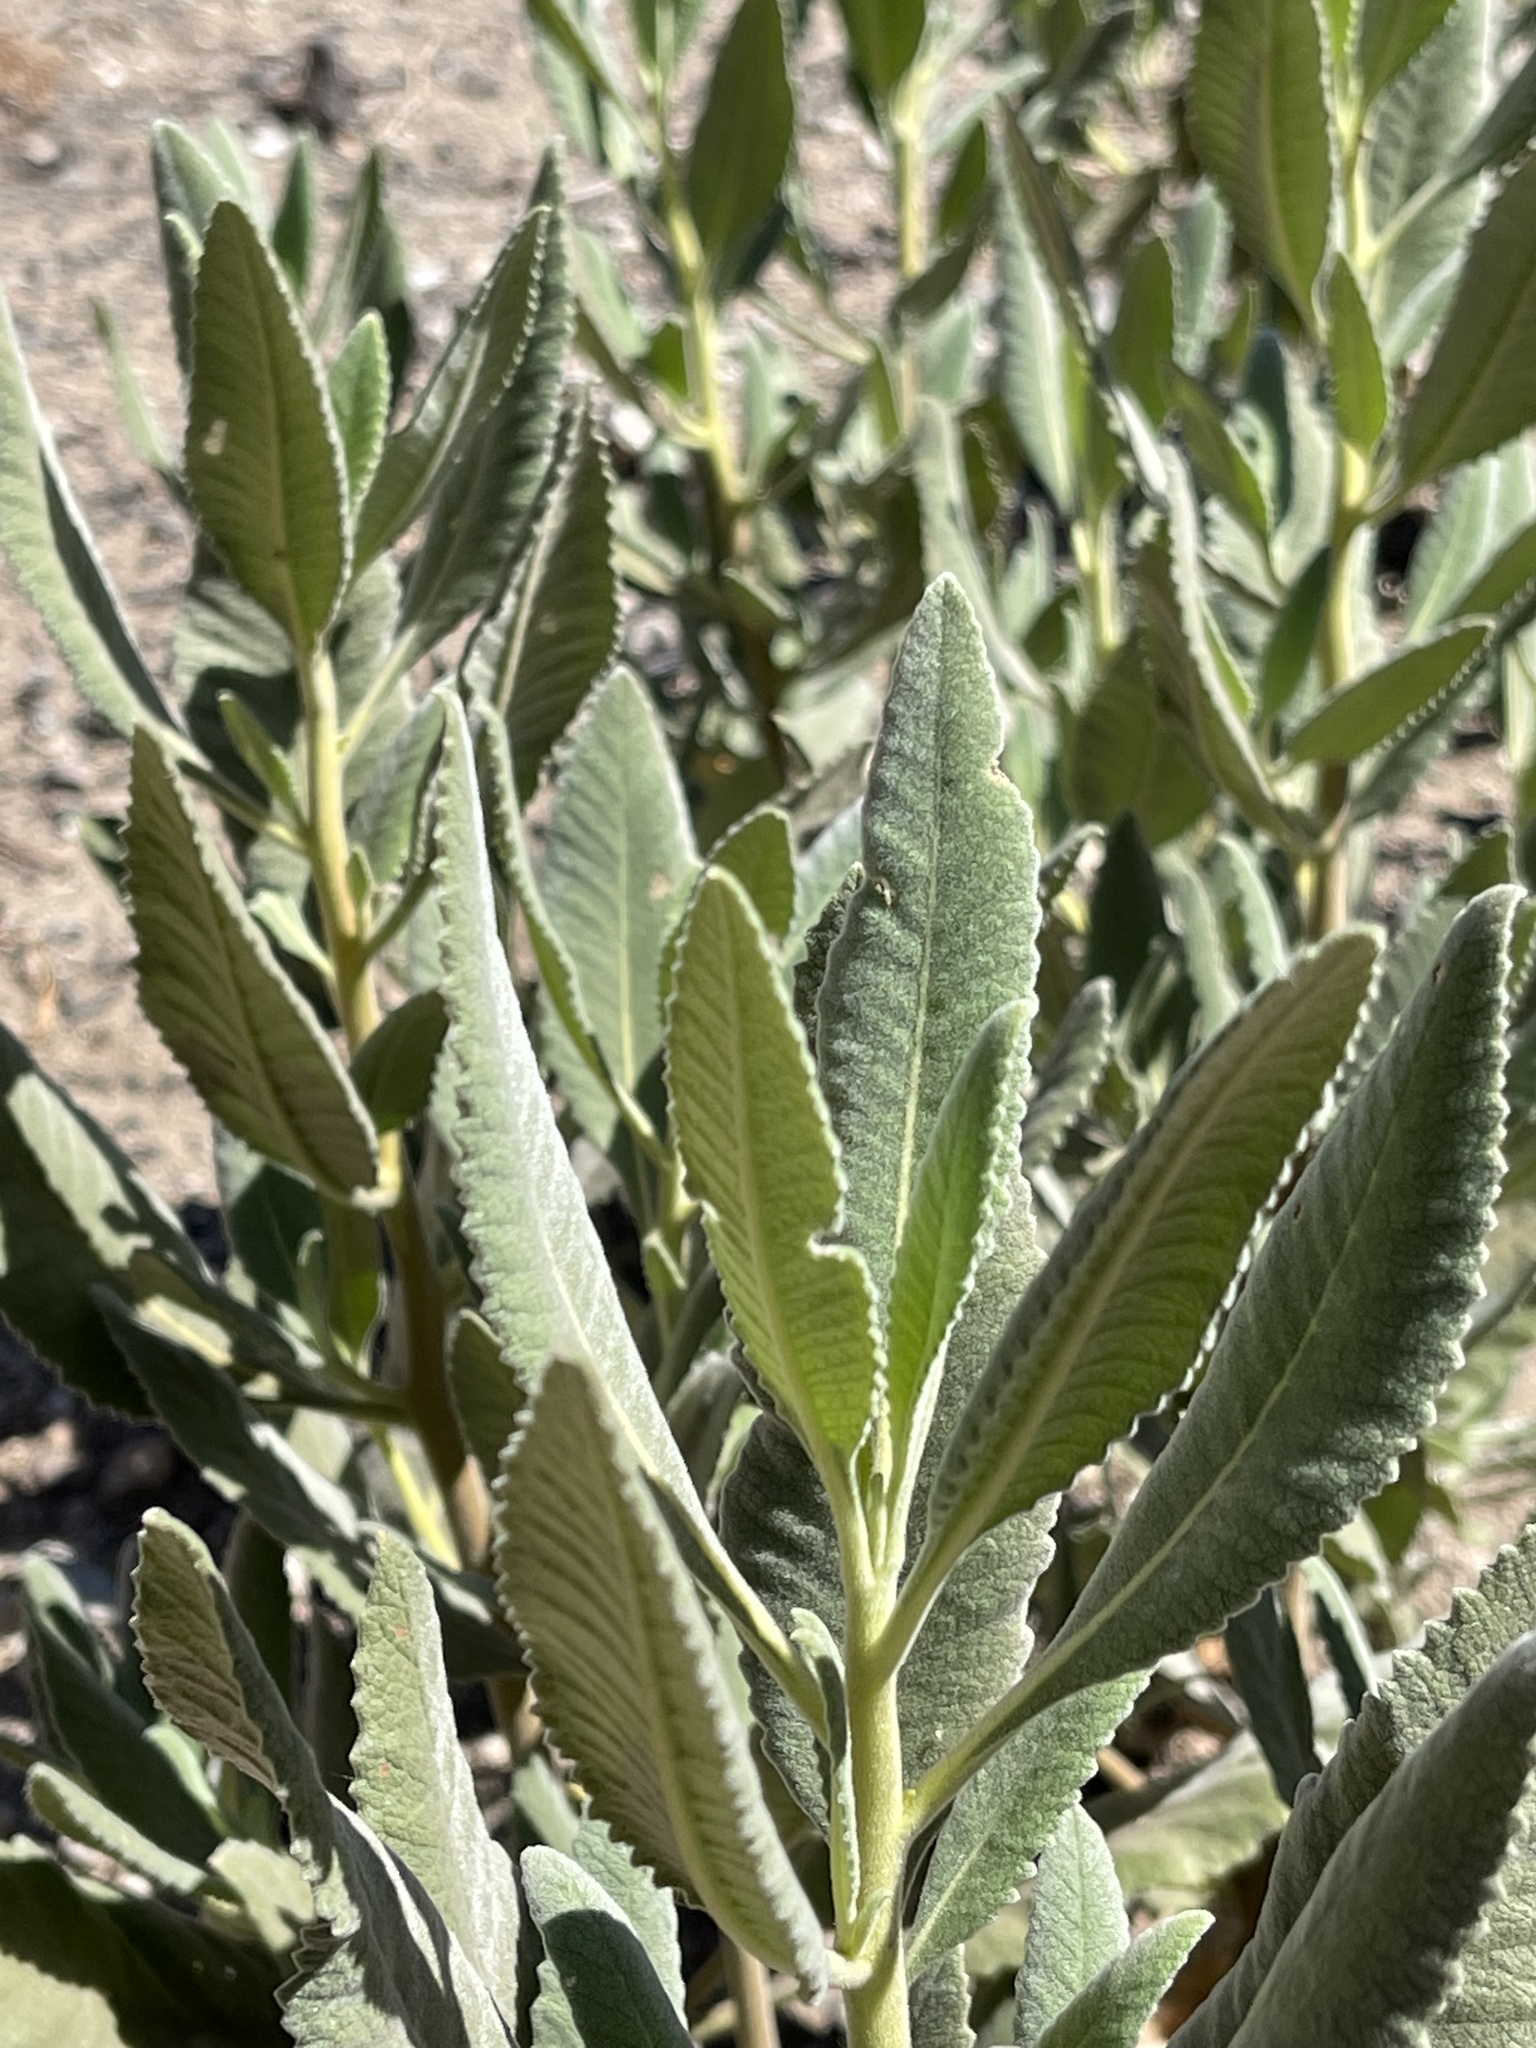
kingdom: Plantae
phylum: Tracheophyta
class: Magnoliopsida
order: Boraginales
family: Namaceae
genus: Eriodictyon
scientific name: Eriodictyon crassifolium
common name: Thick-leaf yerba-santa
